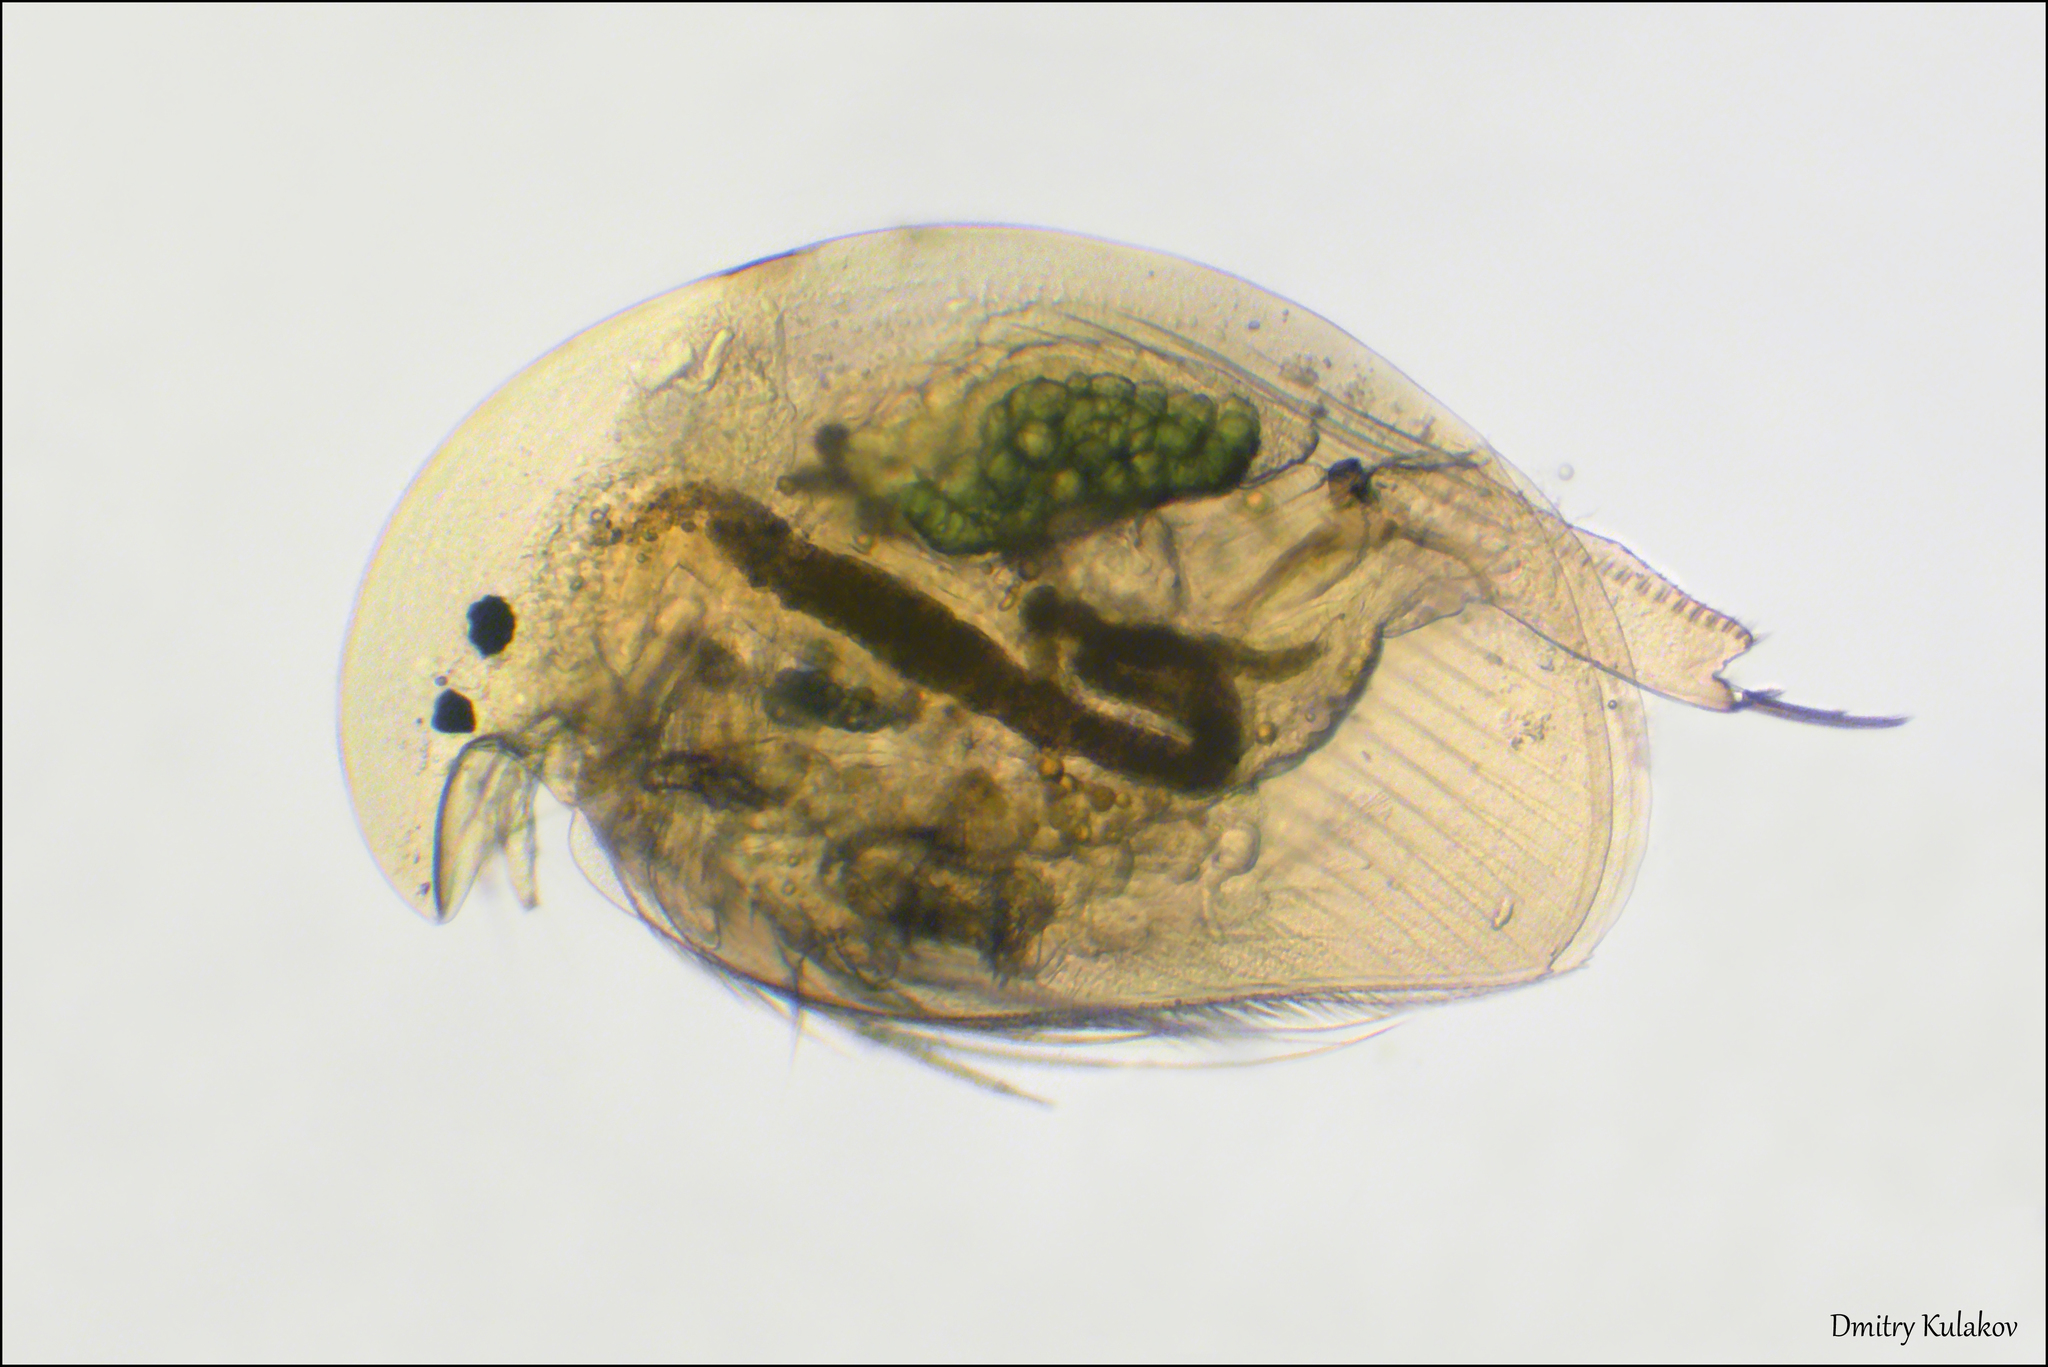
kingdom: Animalia
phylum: Arthropoda
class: Branchiopoda
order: Diplostraca
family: Chydoridae
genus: Acroperus
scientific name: Acroperus harpae
